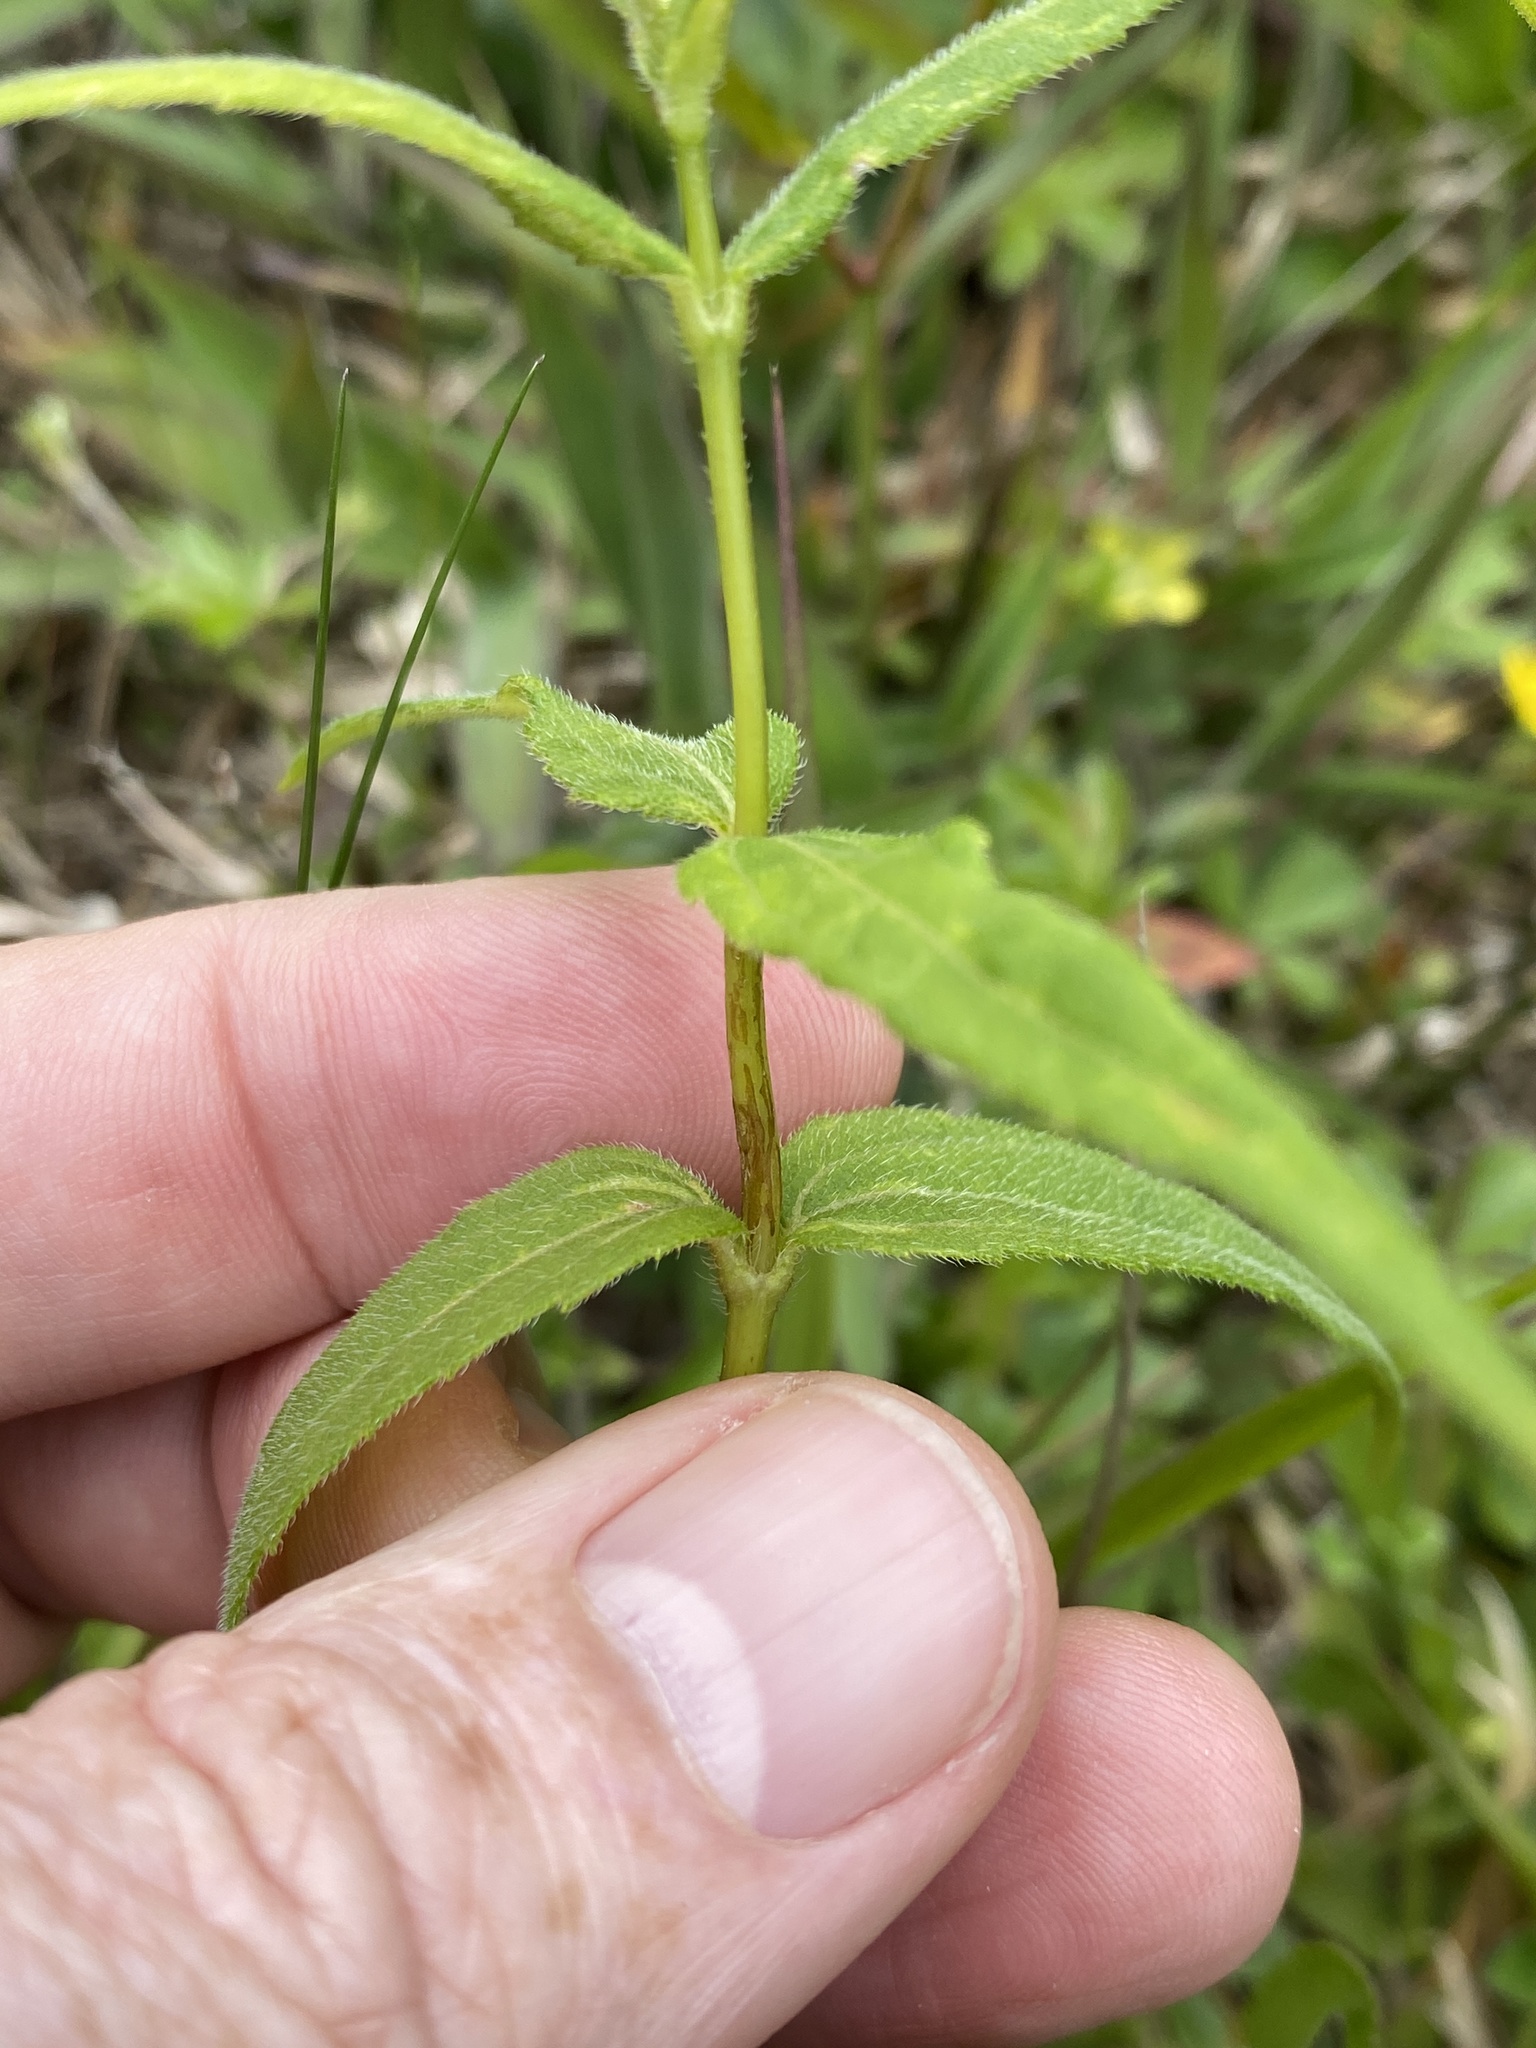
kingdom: Plantae
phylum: Tracheophyta
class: Magnoliopsida
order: Asterales
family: Asteraceae
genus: Helianthus
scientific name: Helianthus divaricatus
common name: Divergent sunflower
